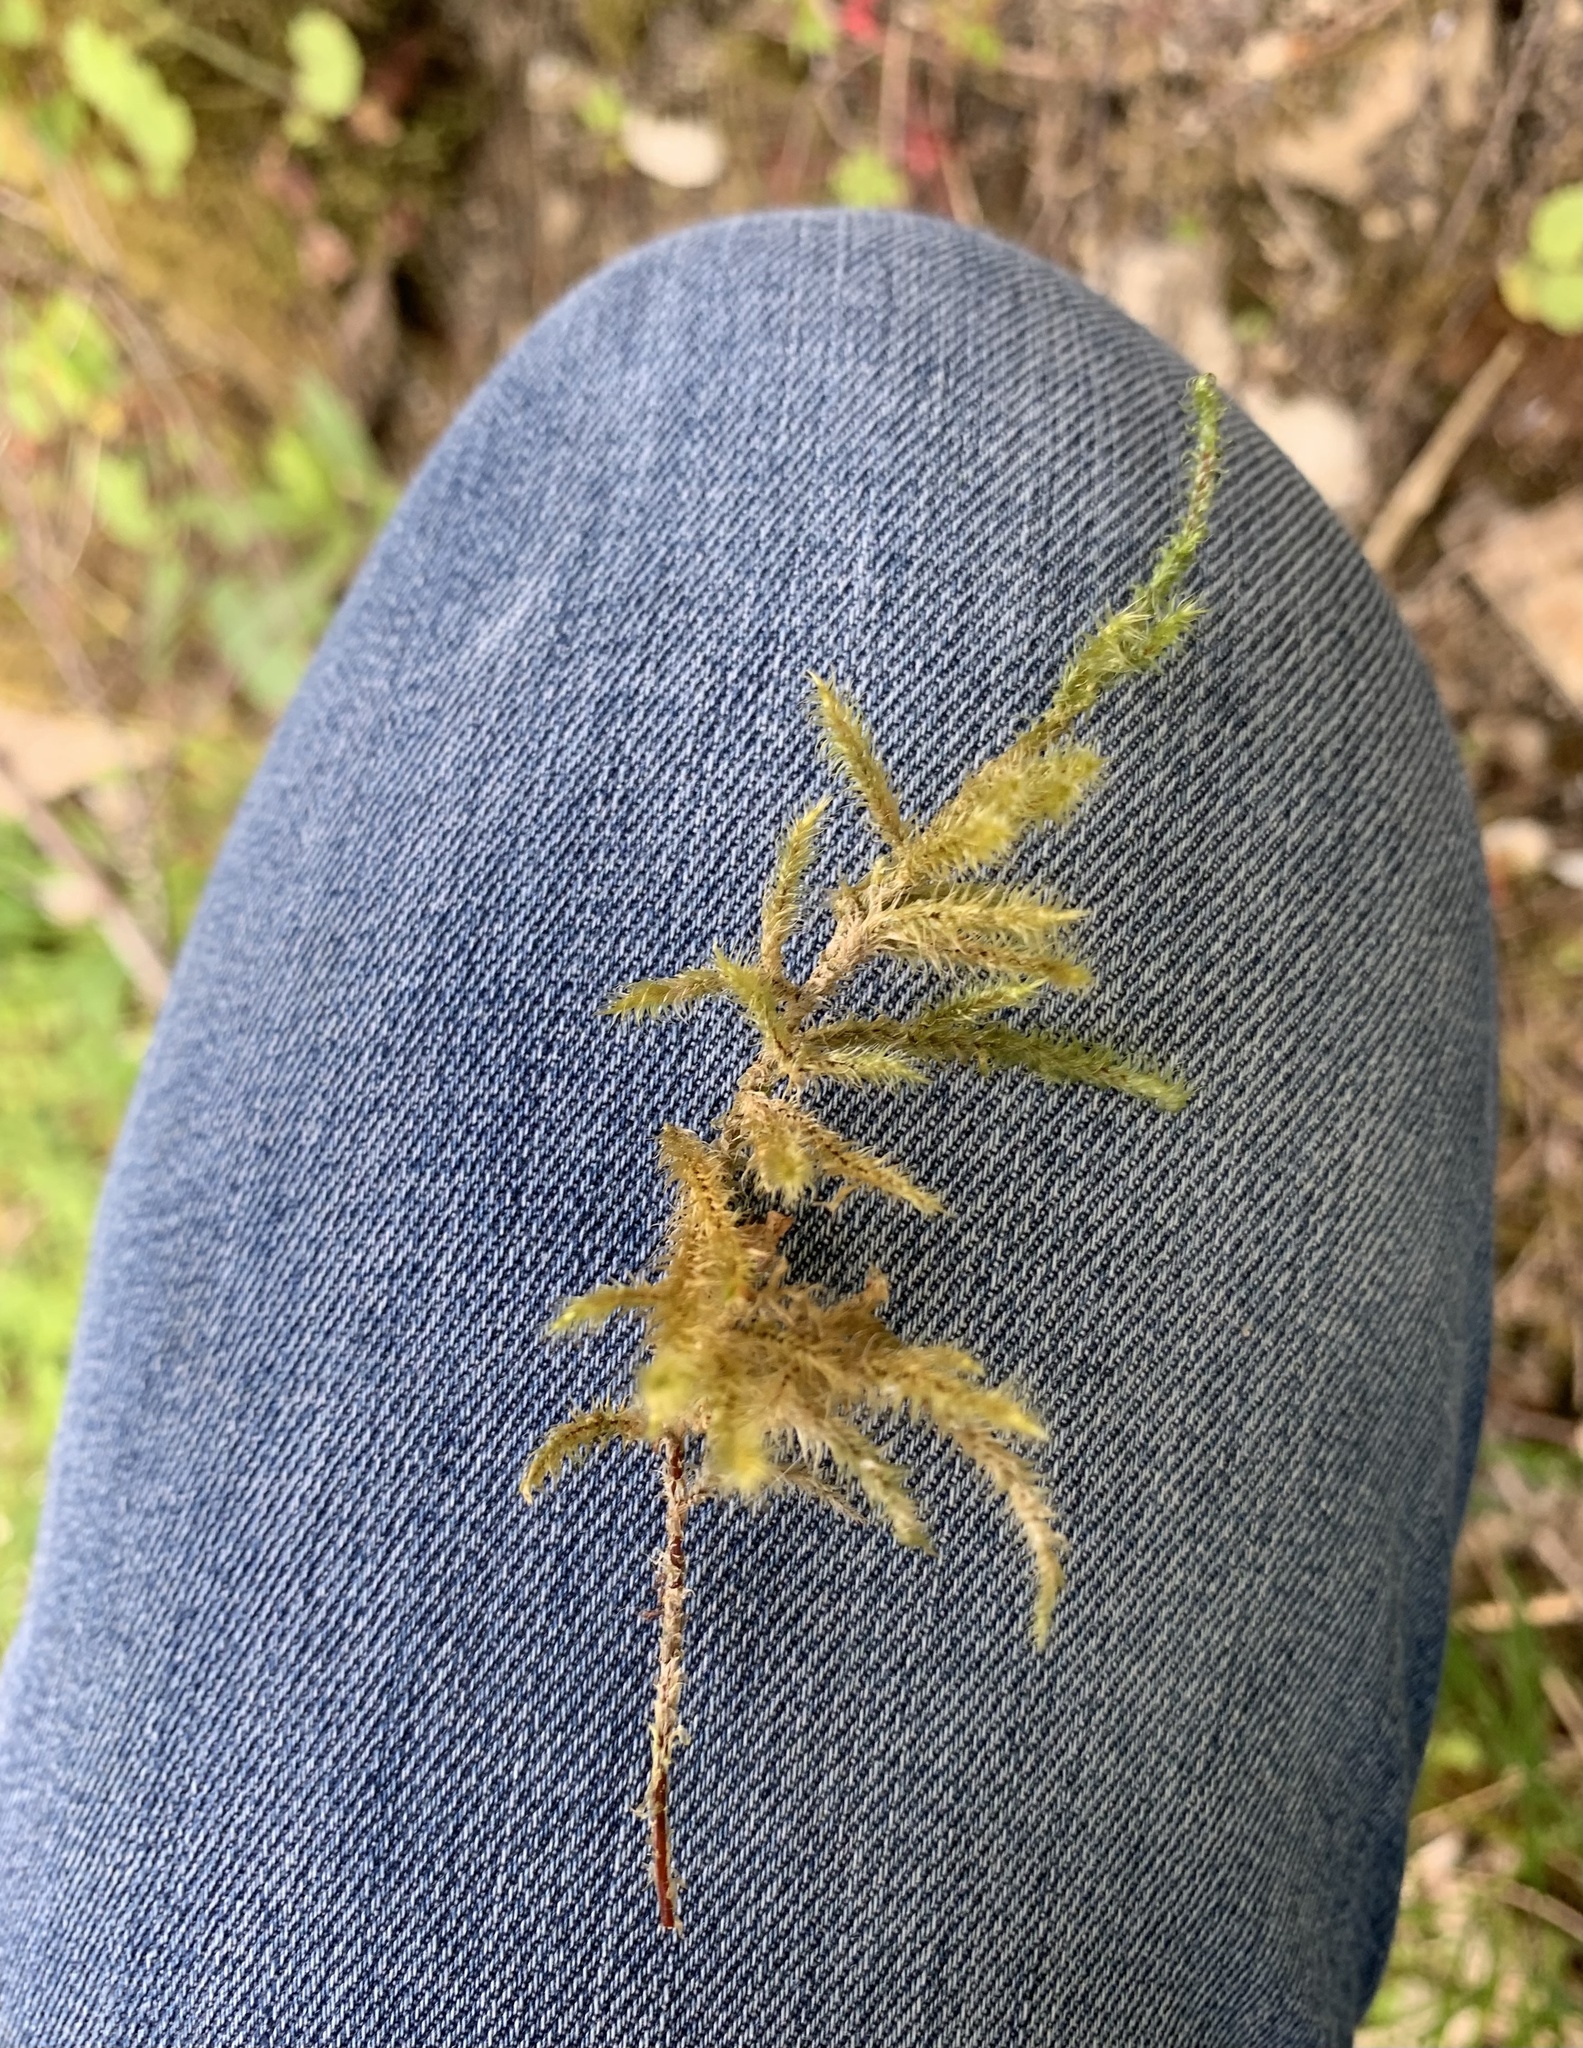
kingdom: Plantae
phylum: Bryophyta
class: Bryopsida
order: Hypnales
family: Hylocomiaceae
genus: Rhytidiadelphus
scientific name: Rhytidiadelphus loreus
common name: Lanky moss
